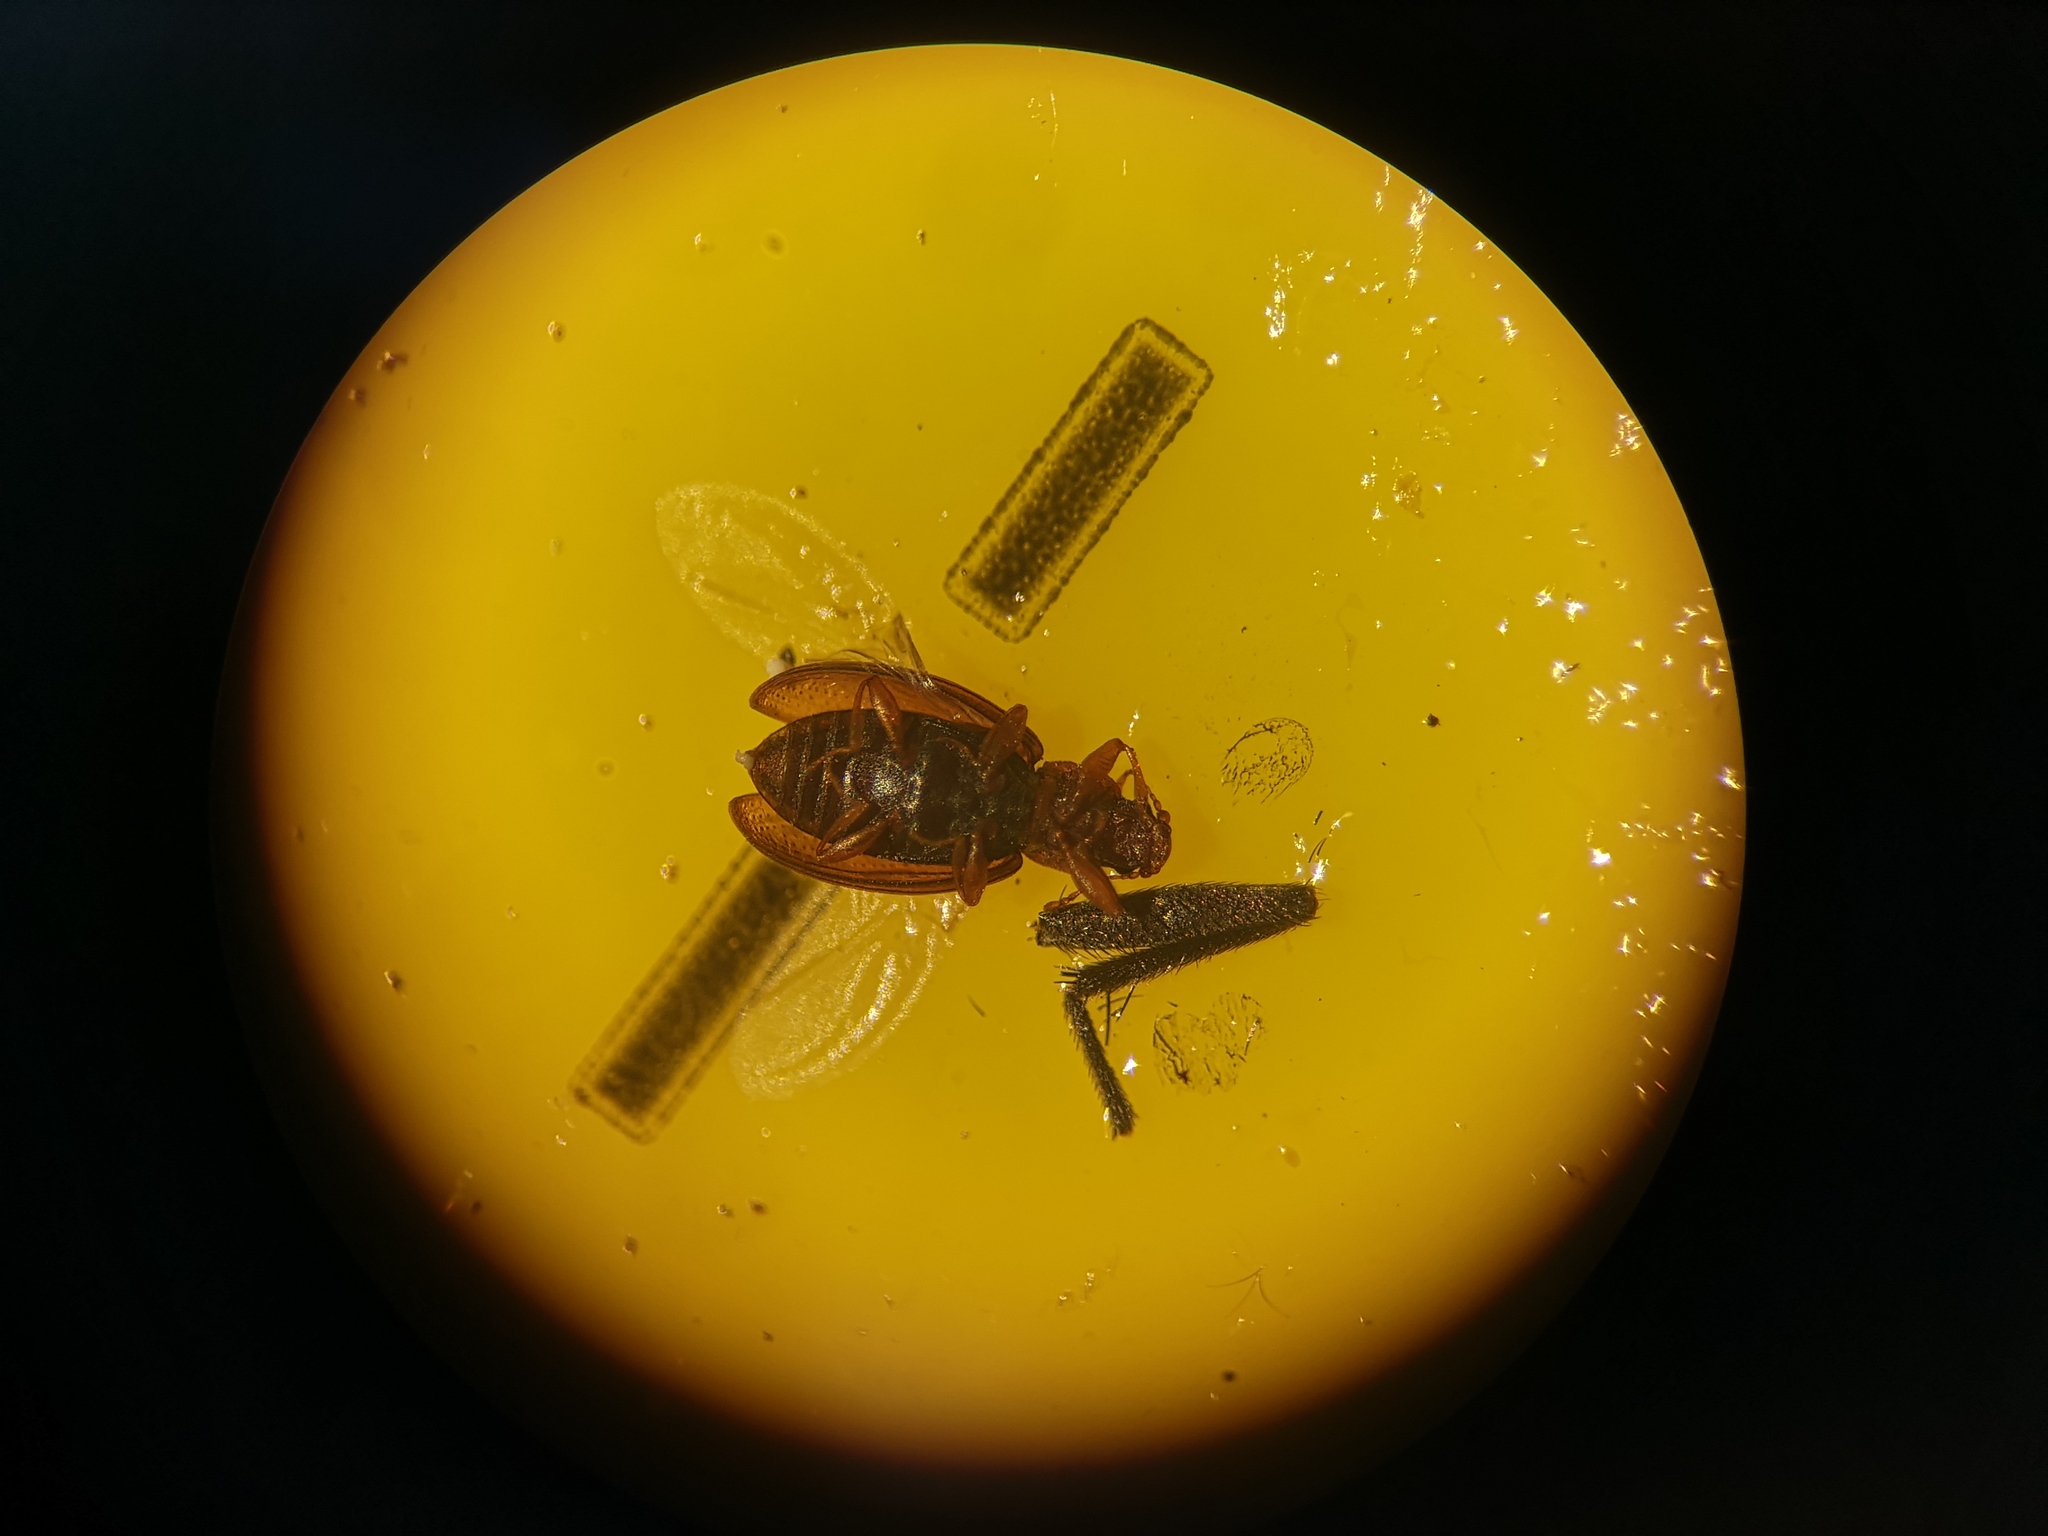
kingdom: Animalia
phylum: Arthropoda
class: Insecta
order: Coleoptera
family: Latridiidae
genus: Enicmus
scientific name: Enicmus transversus
